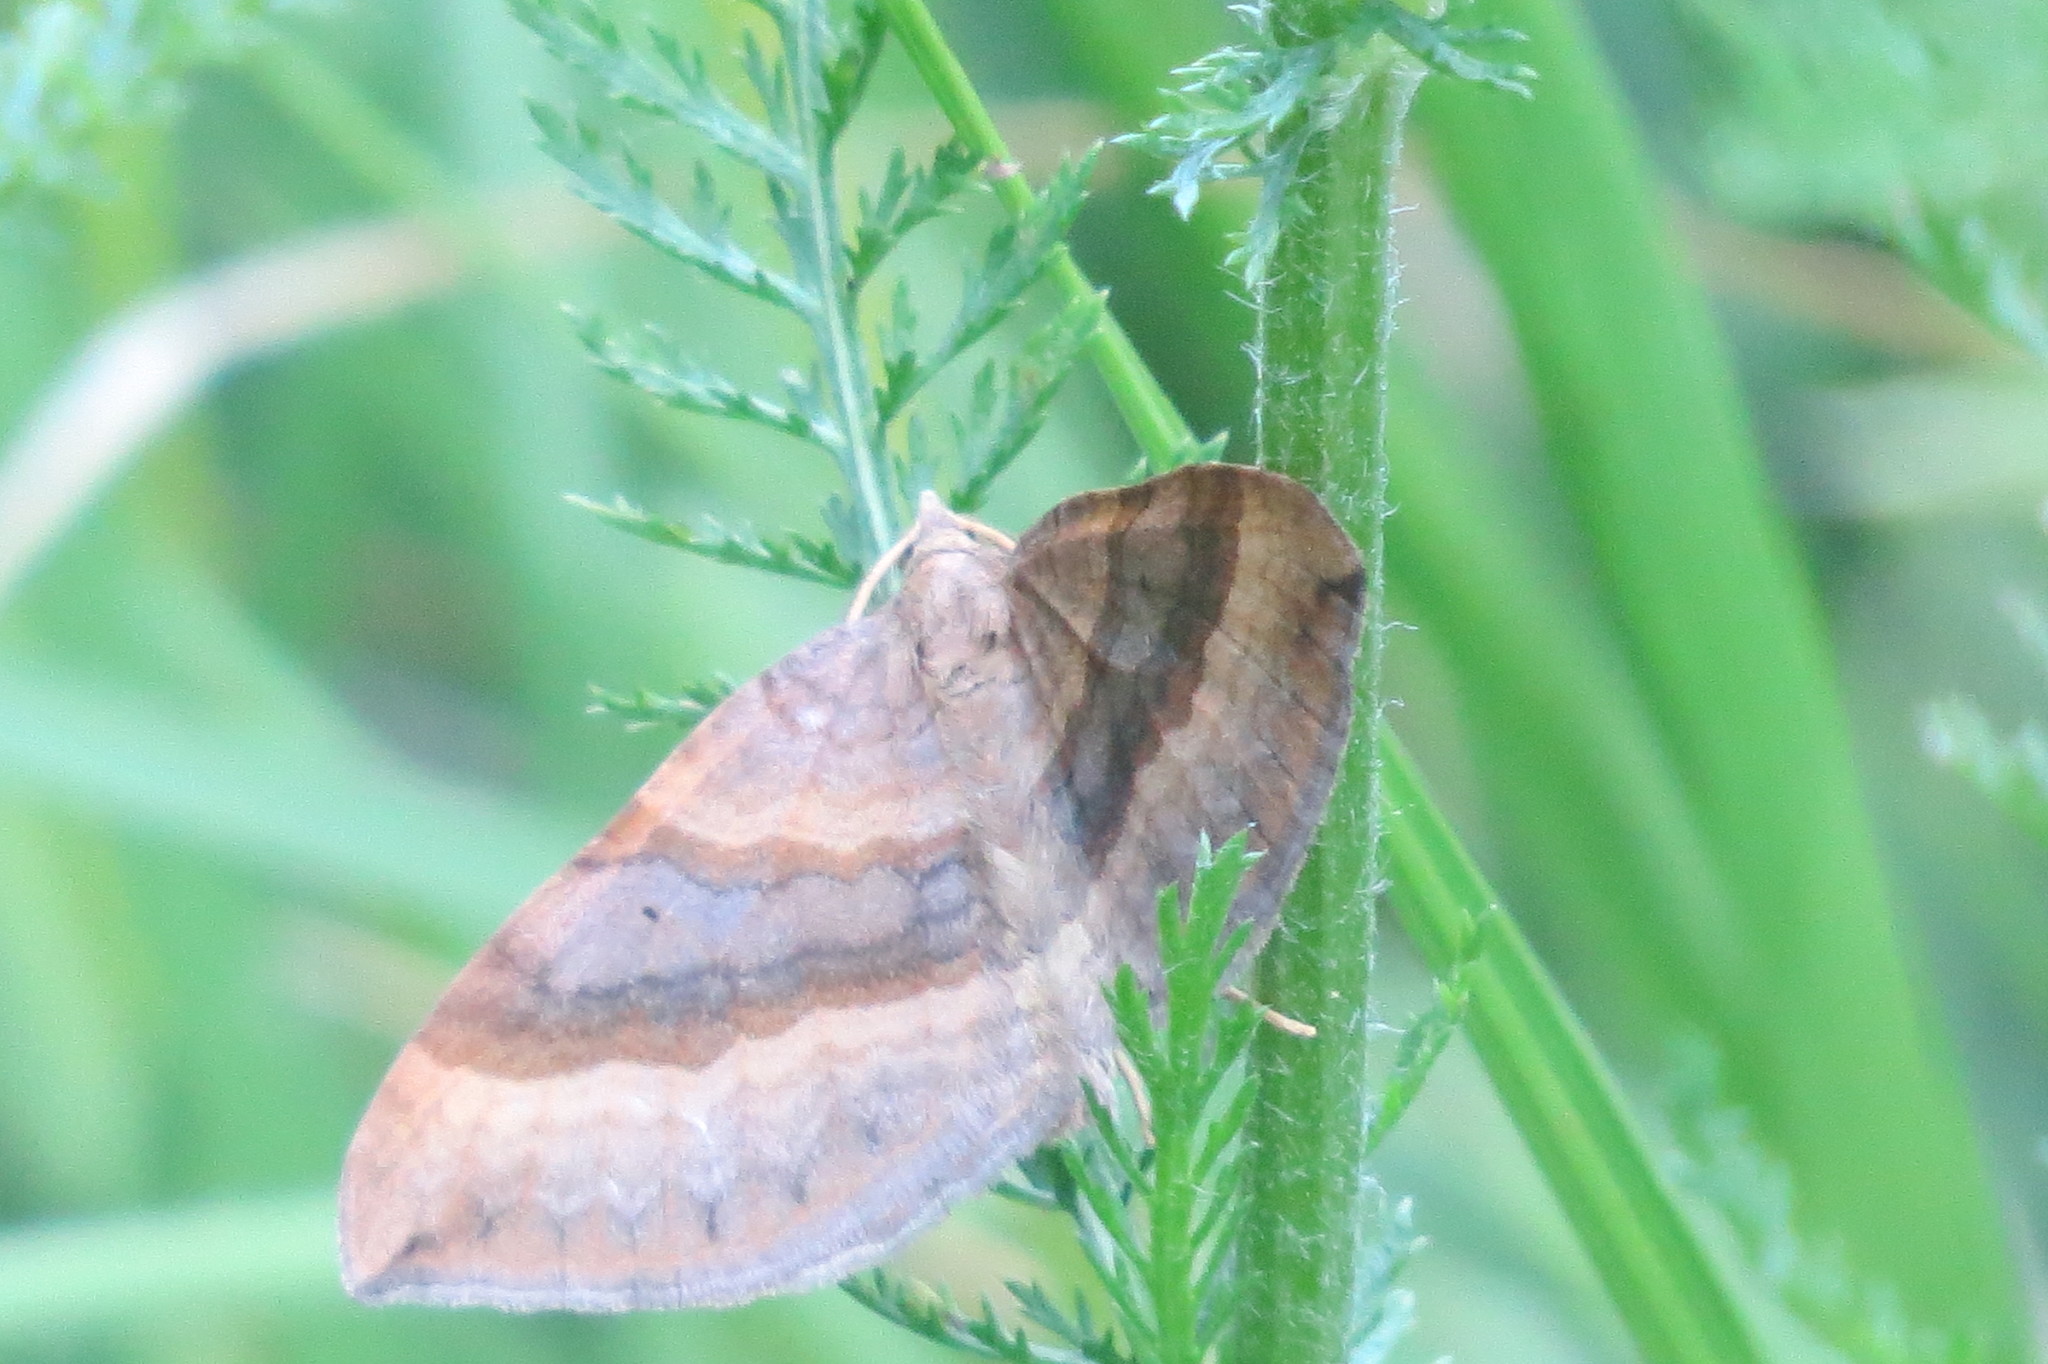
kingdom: Animalia
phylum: Arthropoda
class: Insecta
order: Lepidoptera
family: Geometridae
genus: Scotopteryx
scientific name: Scotopteryx chenopodiata
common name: Shaded broad-bar
